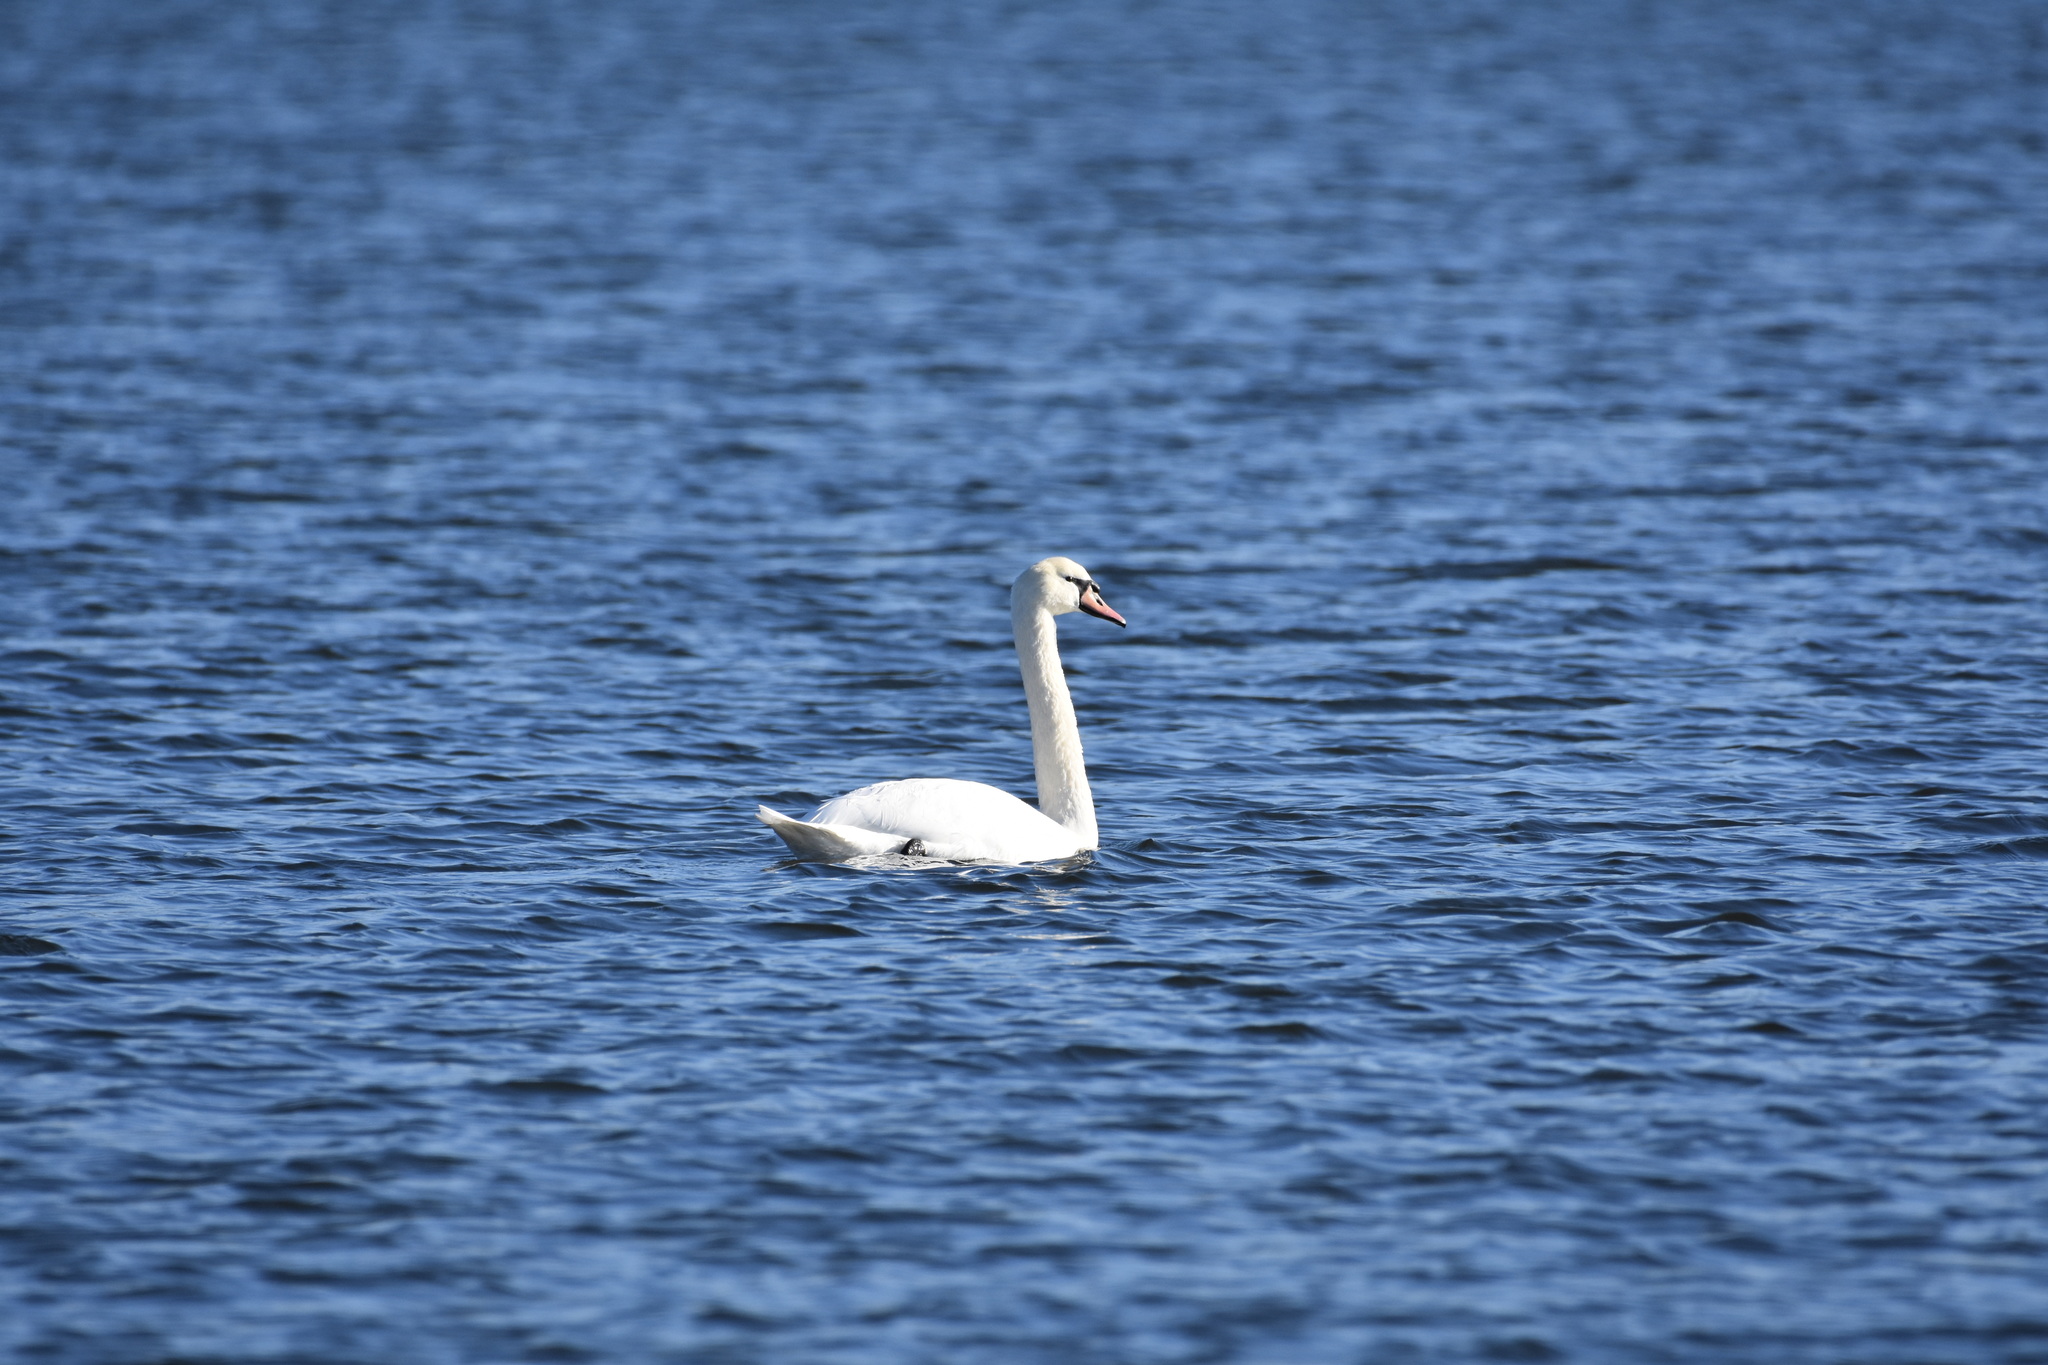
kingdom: Animalia
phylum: Chordata
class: Aves
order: Anseriformes
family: Anatidae
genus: Cygnus
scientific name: Cygnus olor
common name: Mute swan
